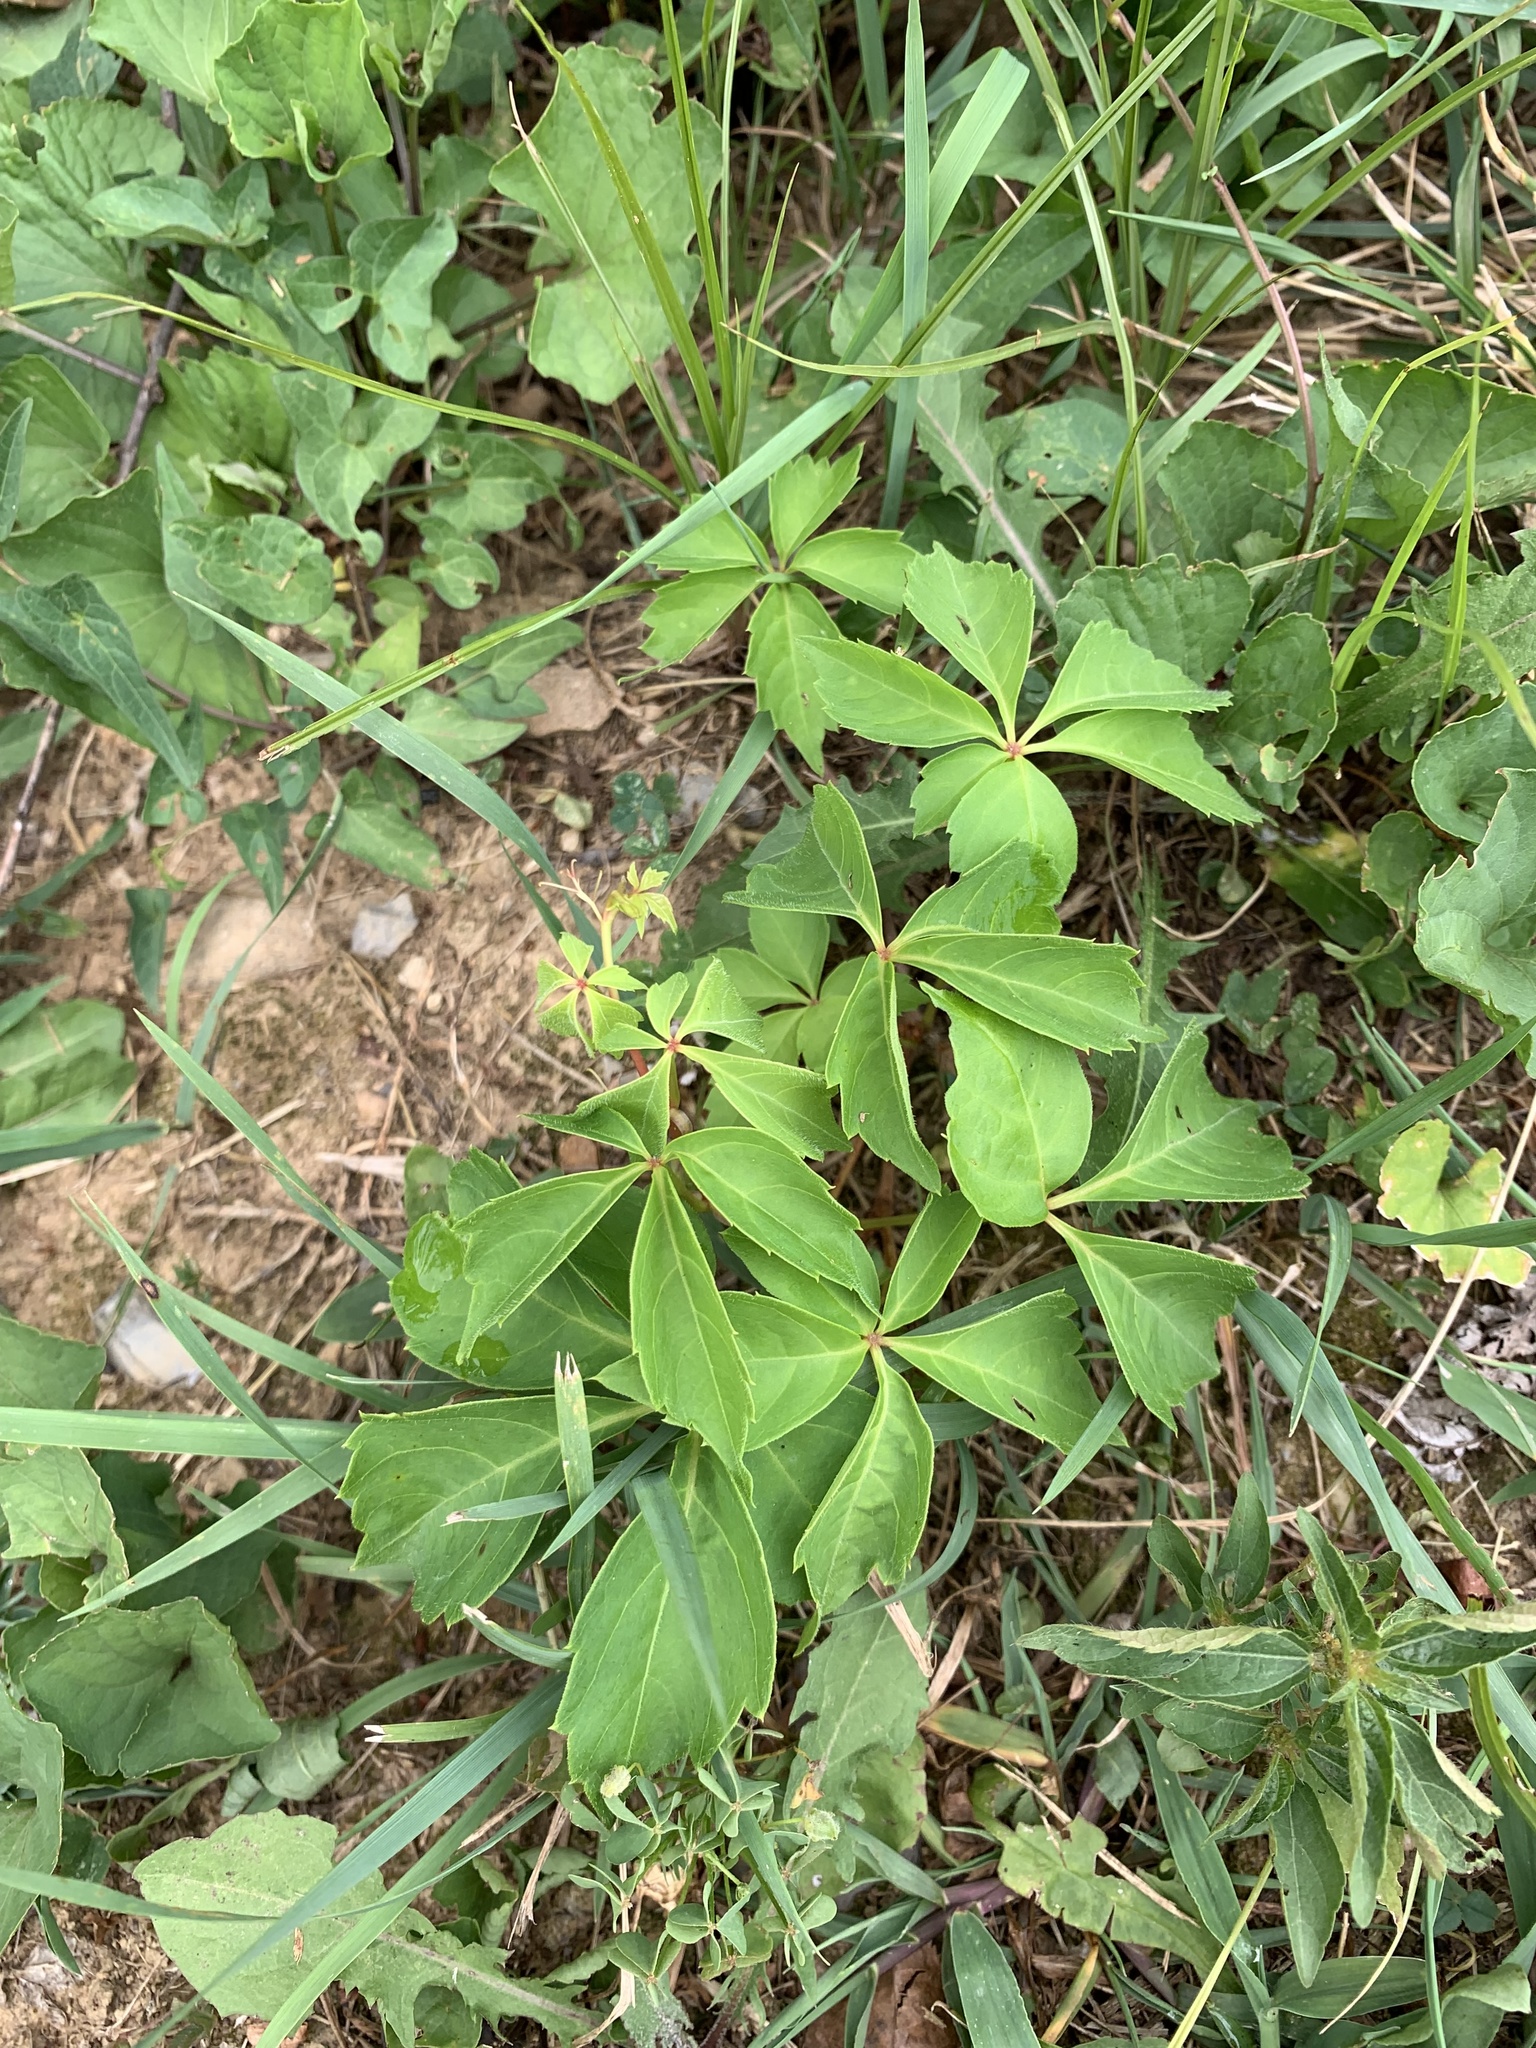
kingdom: Plantae
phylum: Tracheophyta
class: Magnoliopsida
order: Vitales
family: Vitaceae
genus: Parthenocissus
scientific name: Parthenocissus quinquefolia
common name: Virginia-creeper
